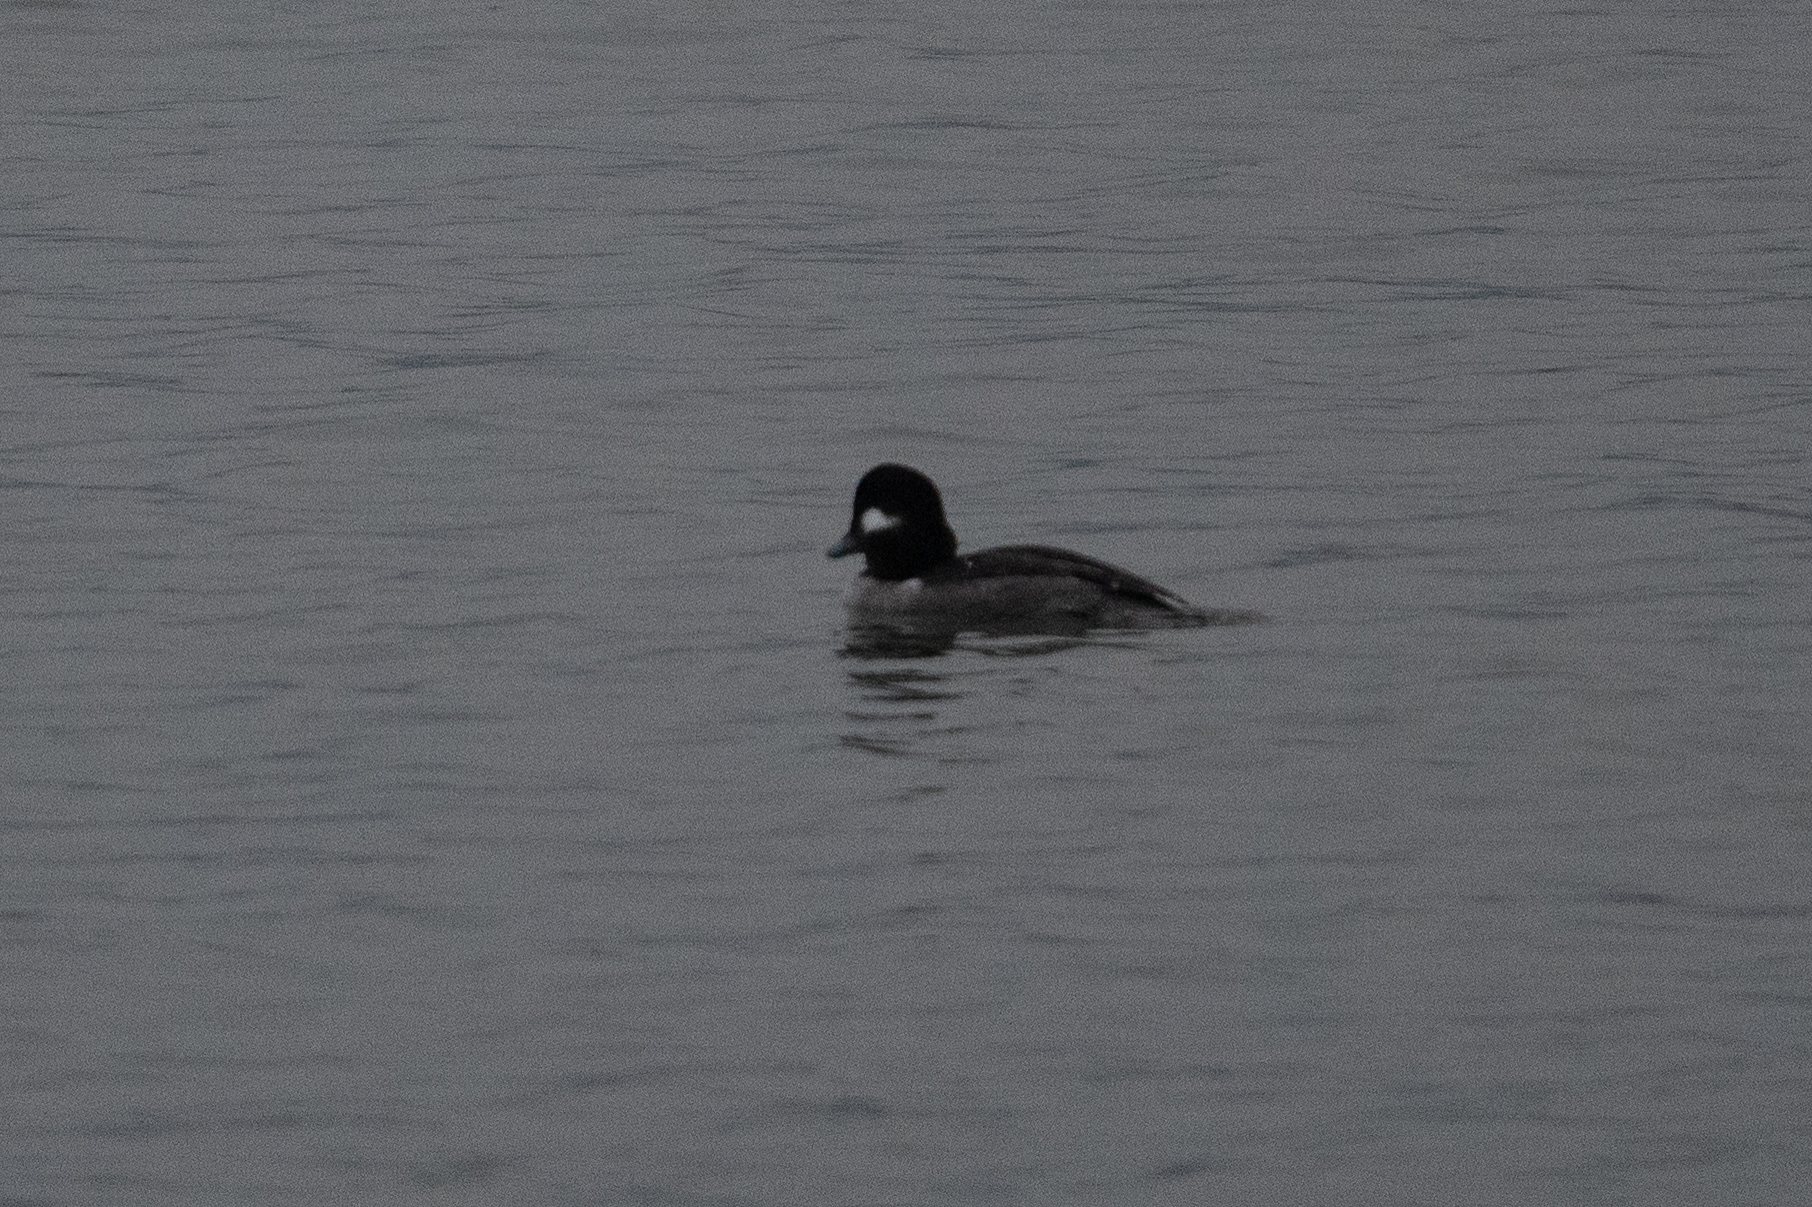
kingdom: Animalia
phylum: Chordata
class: Aves
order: Anseriformes
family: Anatidae
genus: Bucephala
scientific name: Bucephala albeola
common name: Bufflehead
